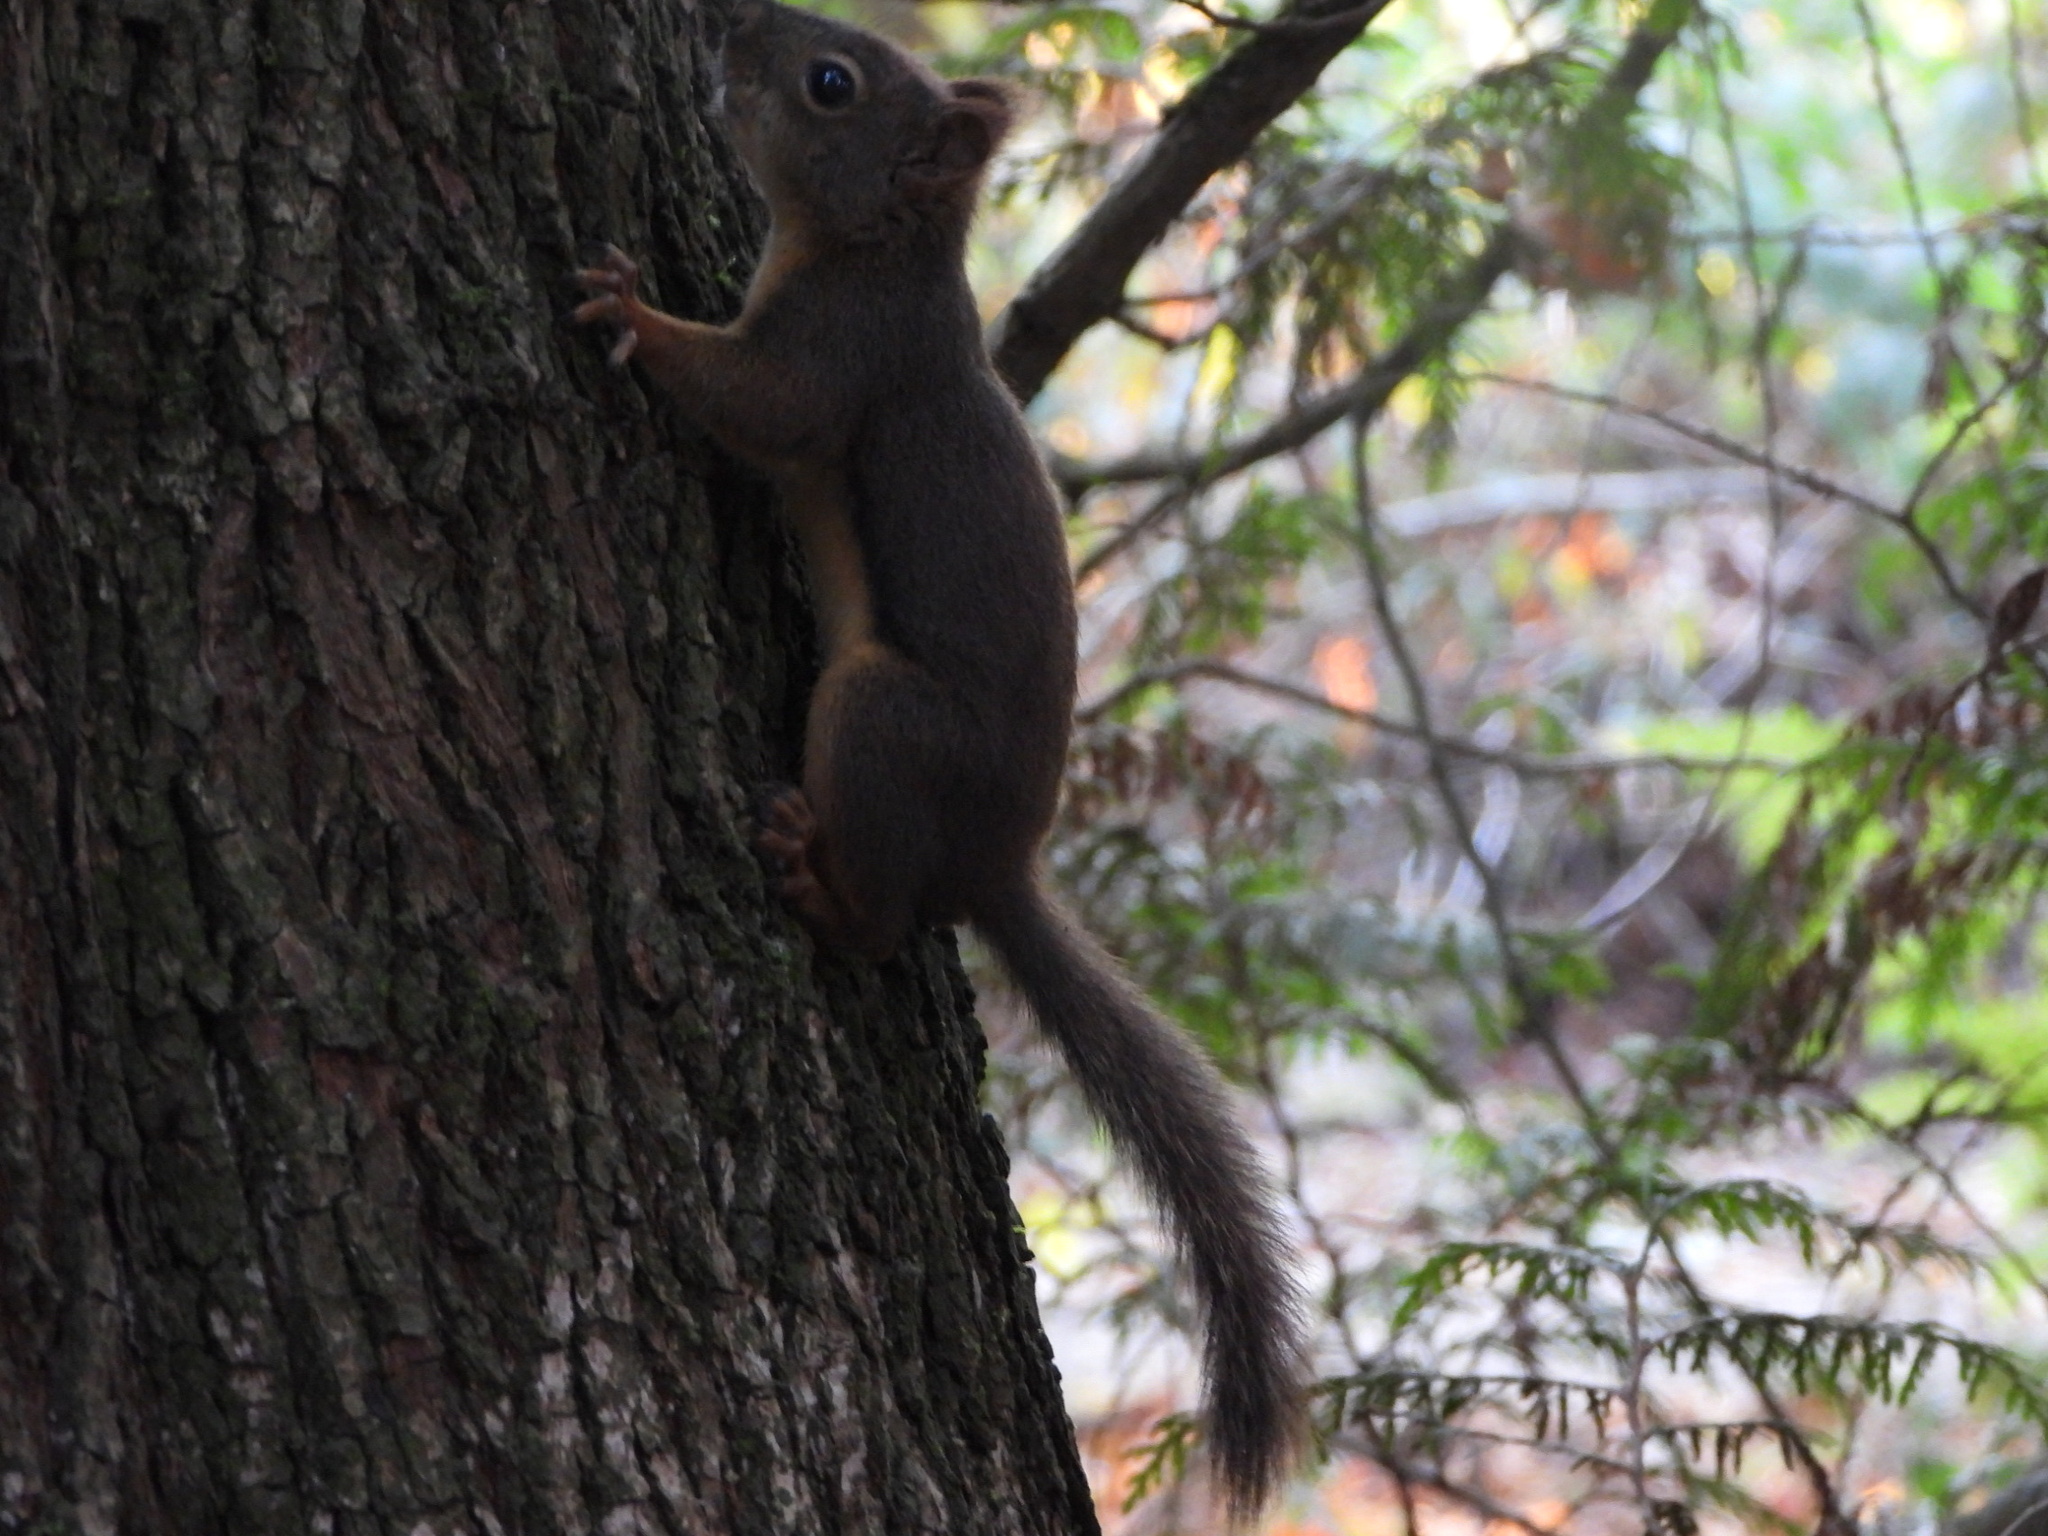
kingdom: Animalia
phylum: Chordata
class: Mammalia
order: Rodentia
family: Sciuridae
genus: Tamiasciurus
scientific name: Tamiasciurus douglasii
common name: Douglas's squirrel
